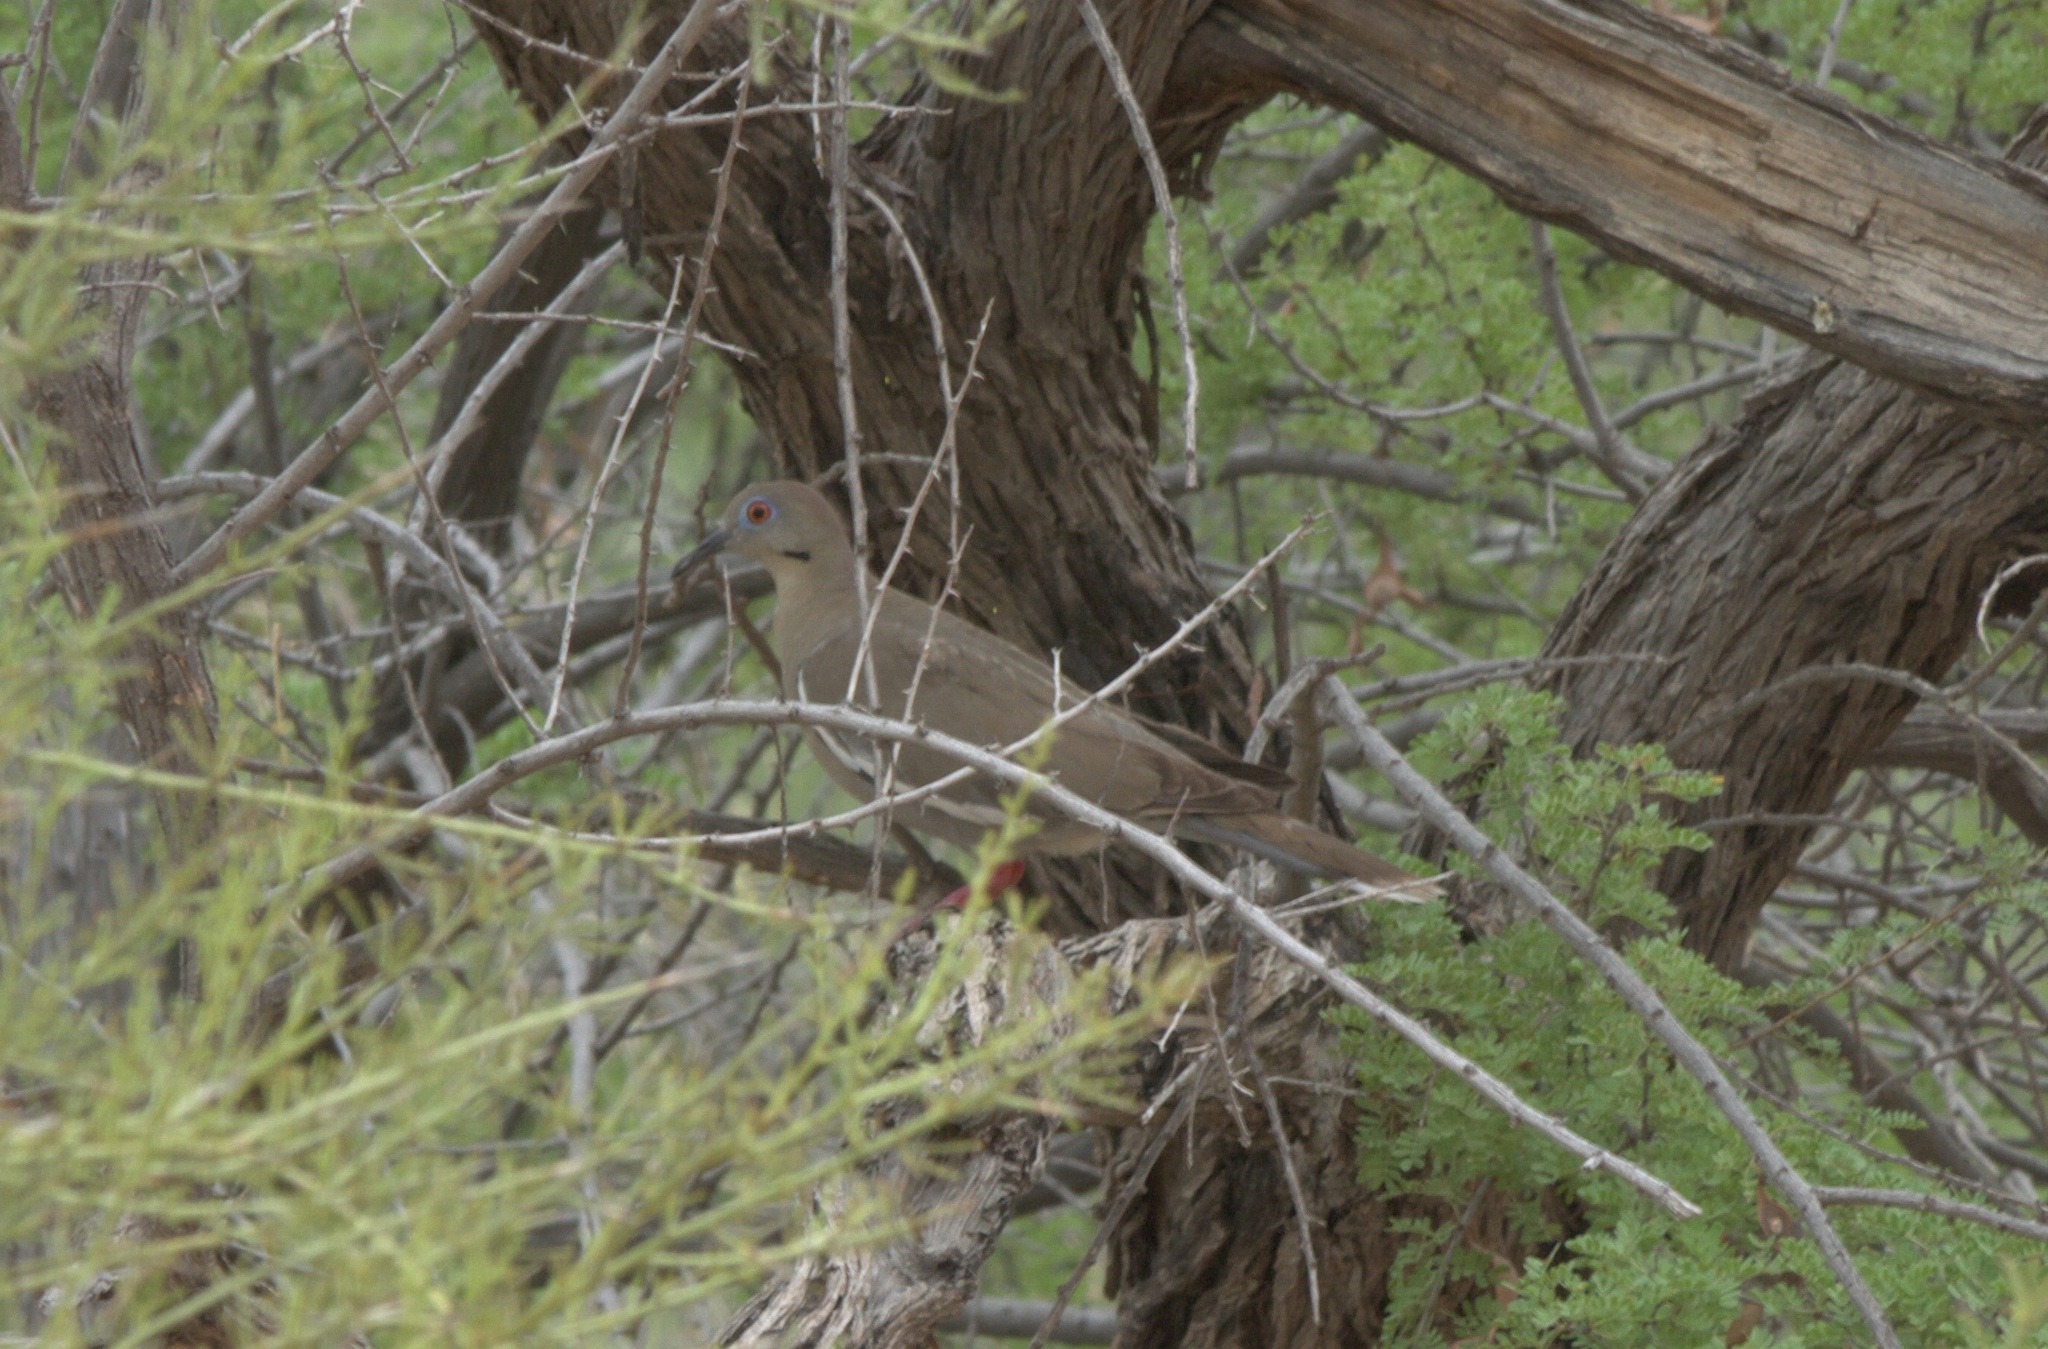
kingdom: Animalia
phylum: Chordata
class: Aves
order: Columbiformes
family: Columbidae
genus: Zenaida
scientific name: Zenaida asiatica
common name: White-winged dove
